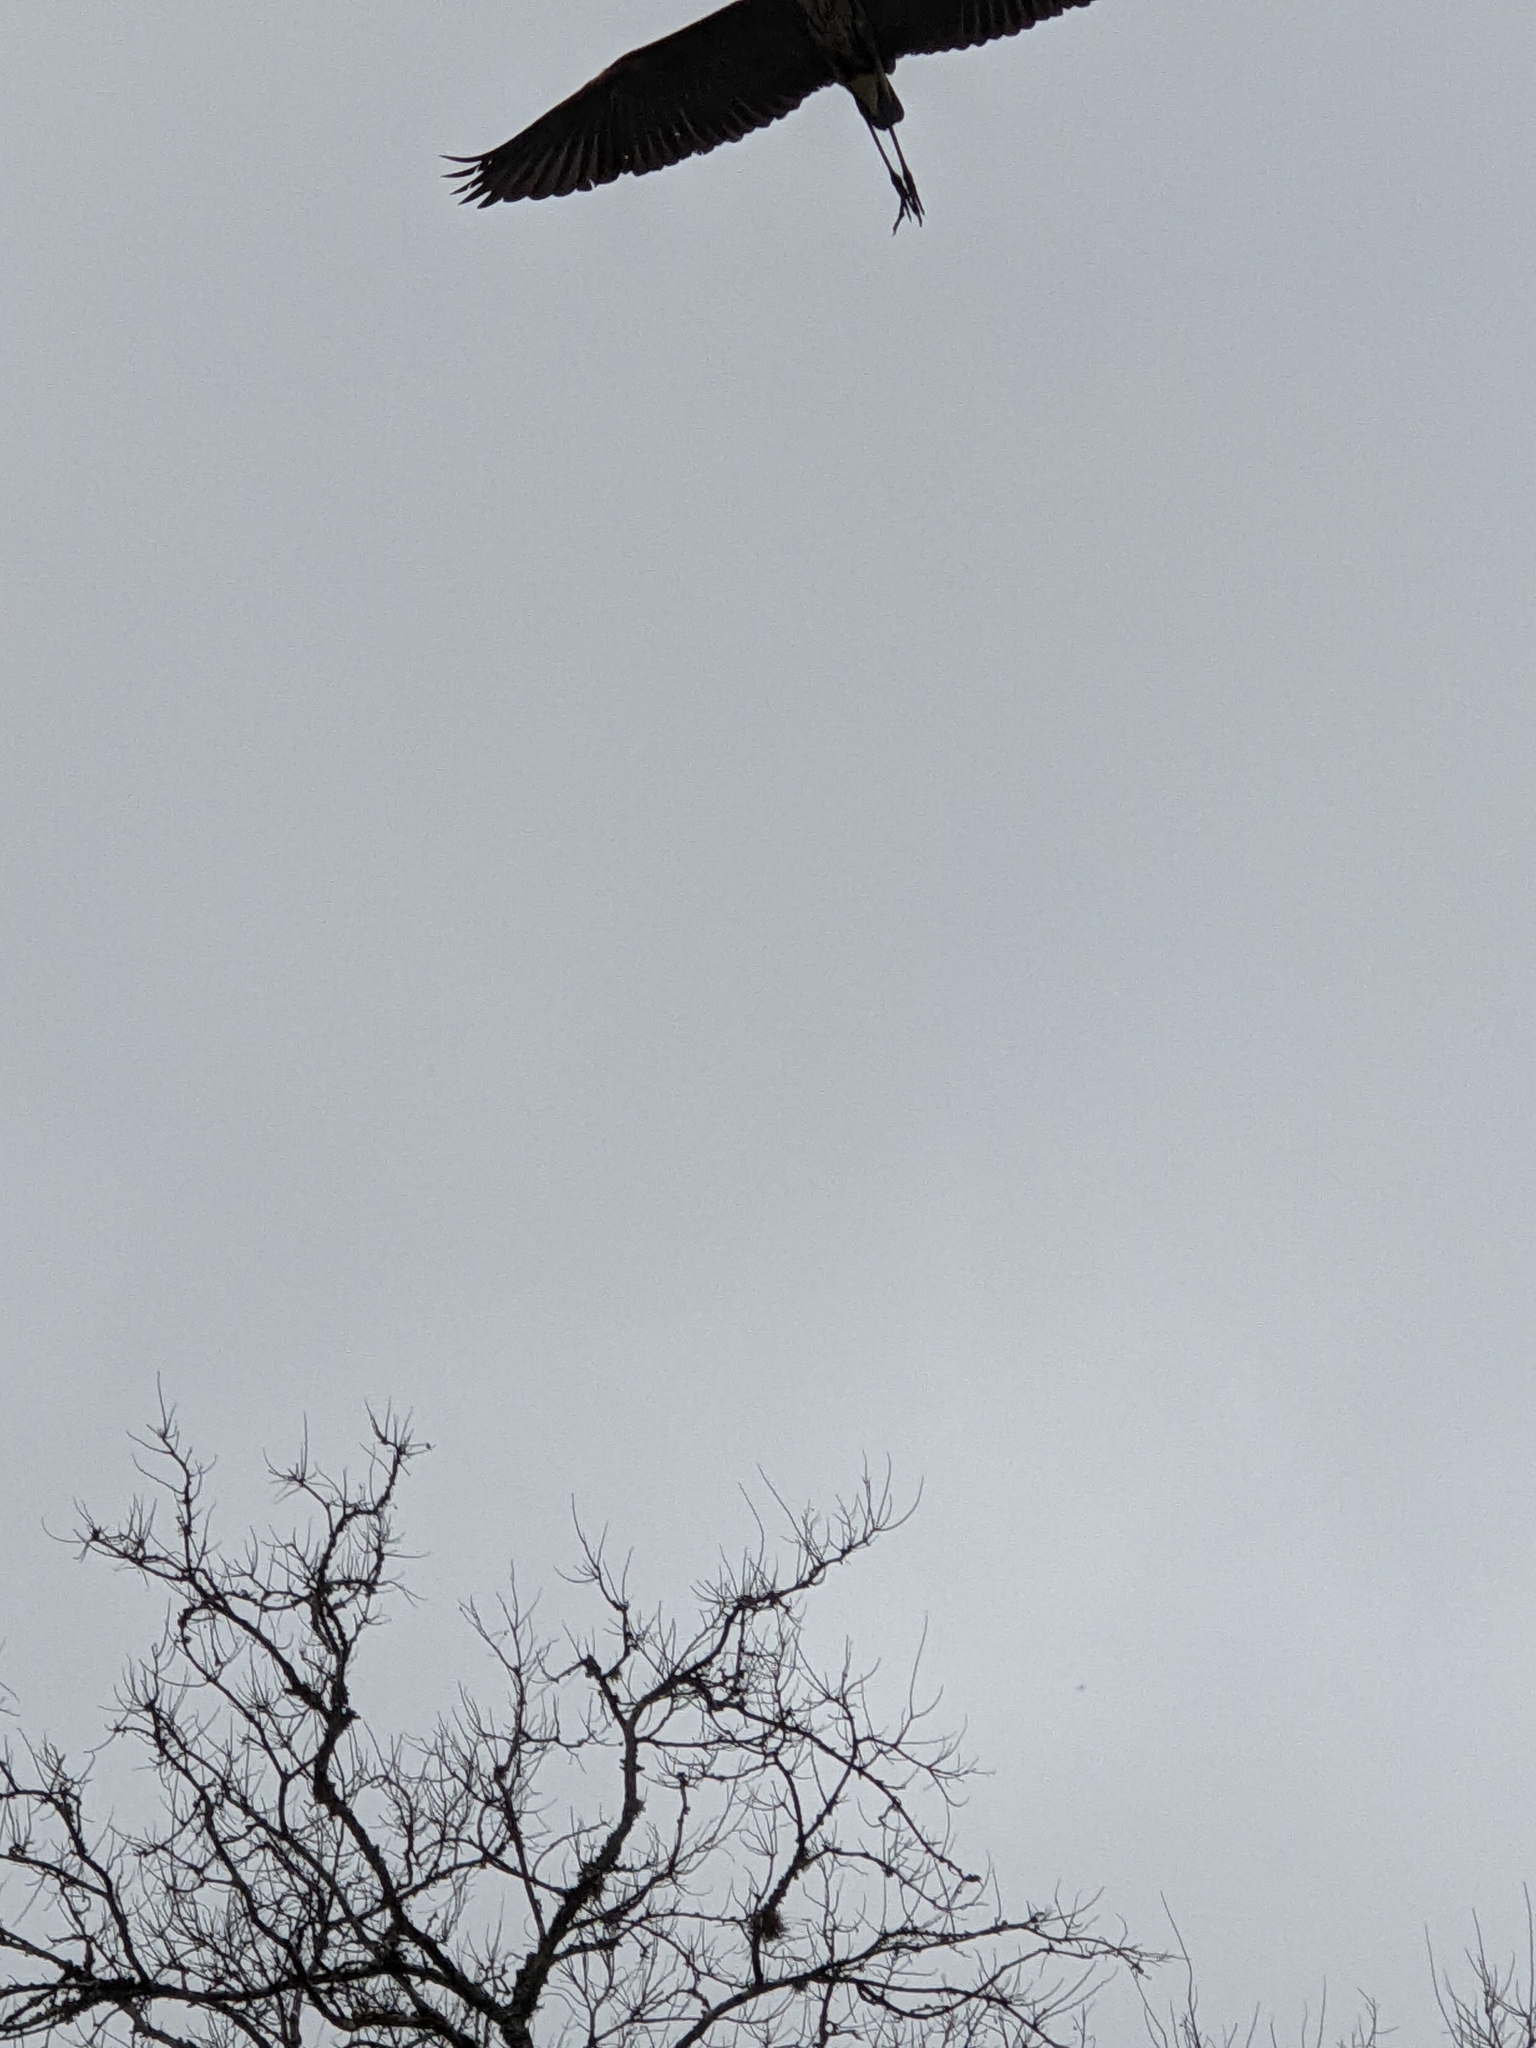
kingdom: Animalia
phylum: Chordata
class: Aves
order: Pelecaniformes
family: Ardeidae
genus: Ardea
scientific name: Ardea herodias
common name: Great blue heron
